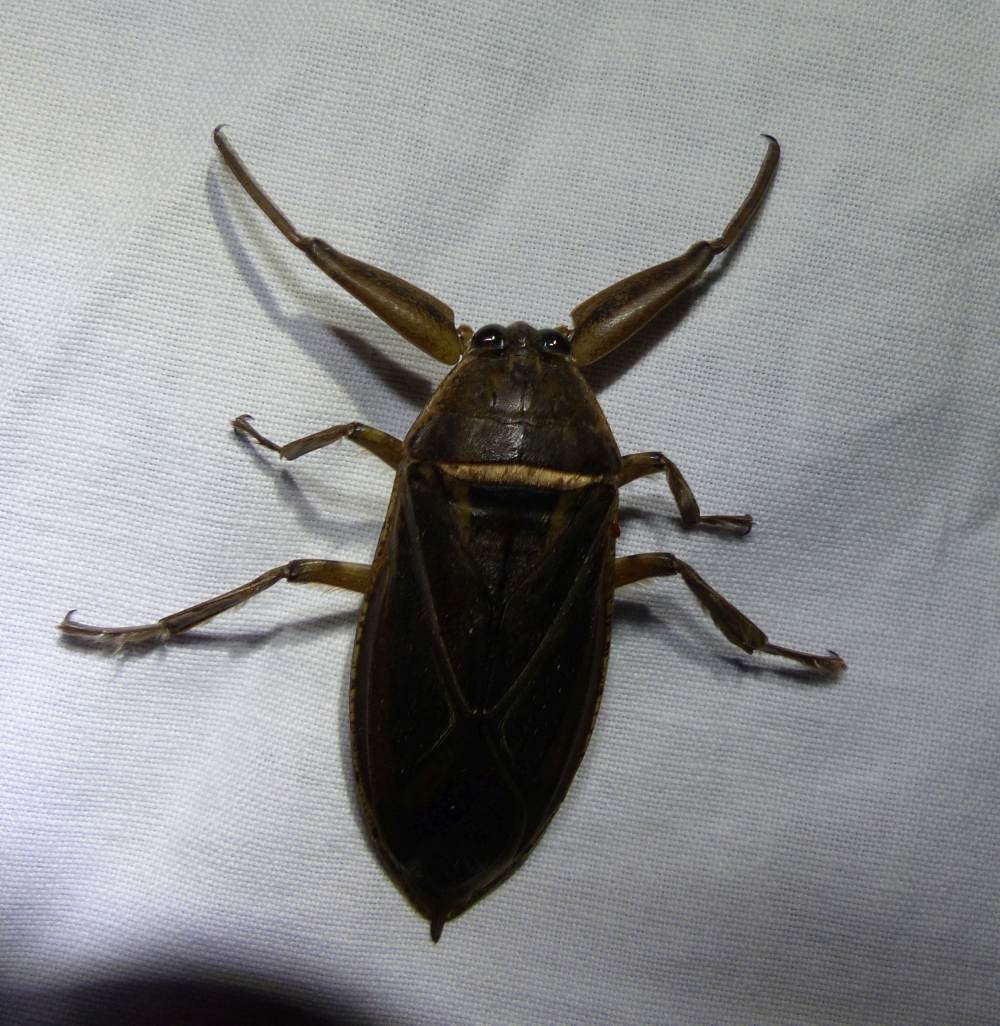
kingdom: Animalia
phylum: Arthropoda
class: Insecta
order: Hemiptera
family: Belostomatidae
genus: Lethocerus
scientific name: Lethocerus americanus
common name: Giant water bug
